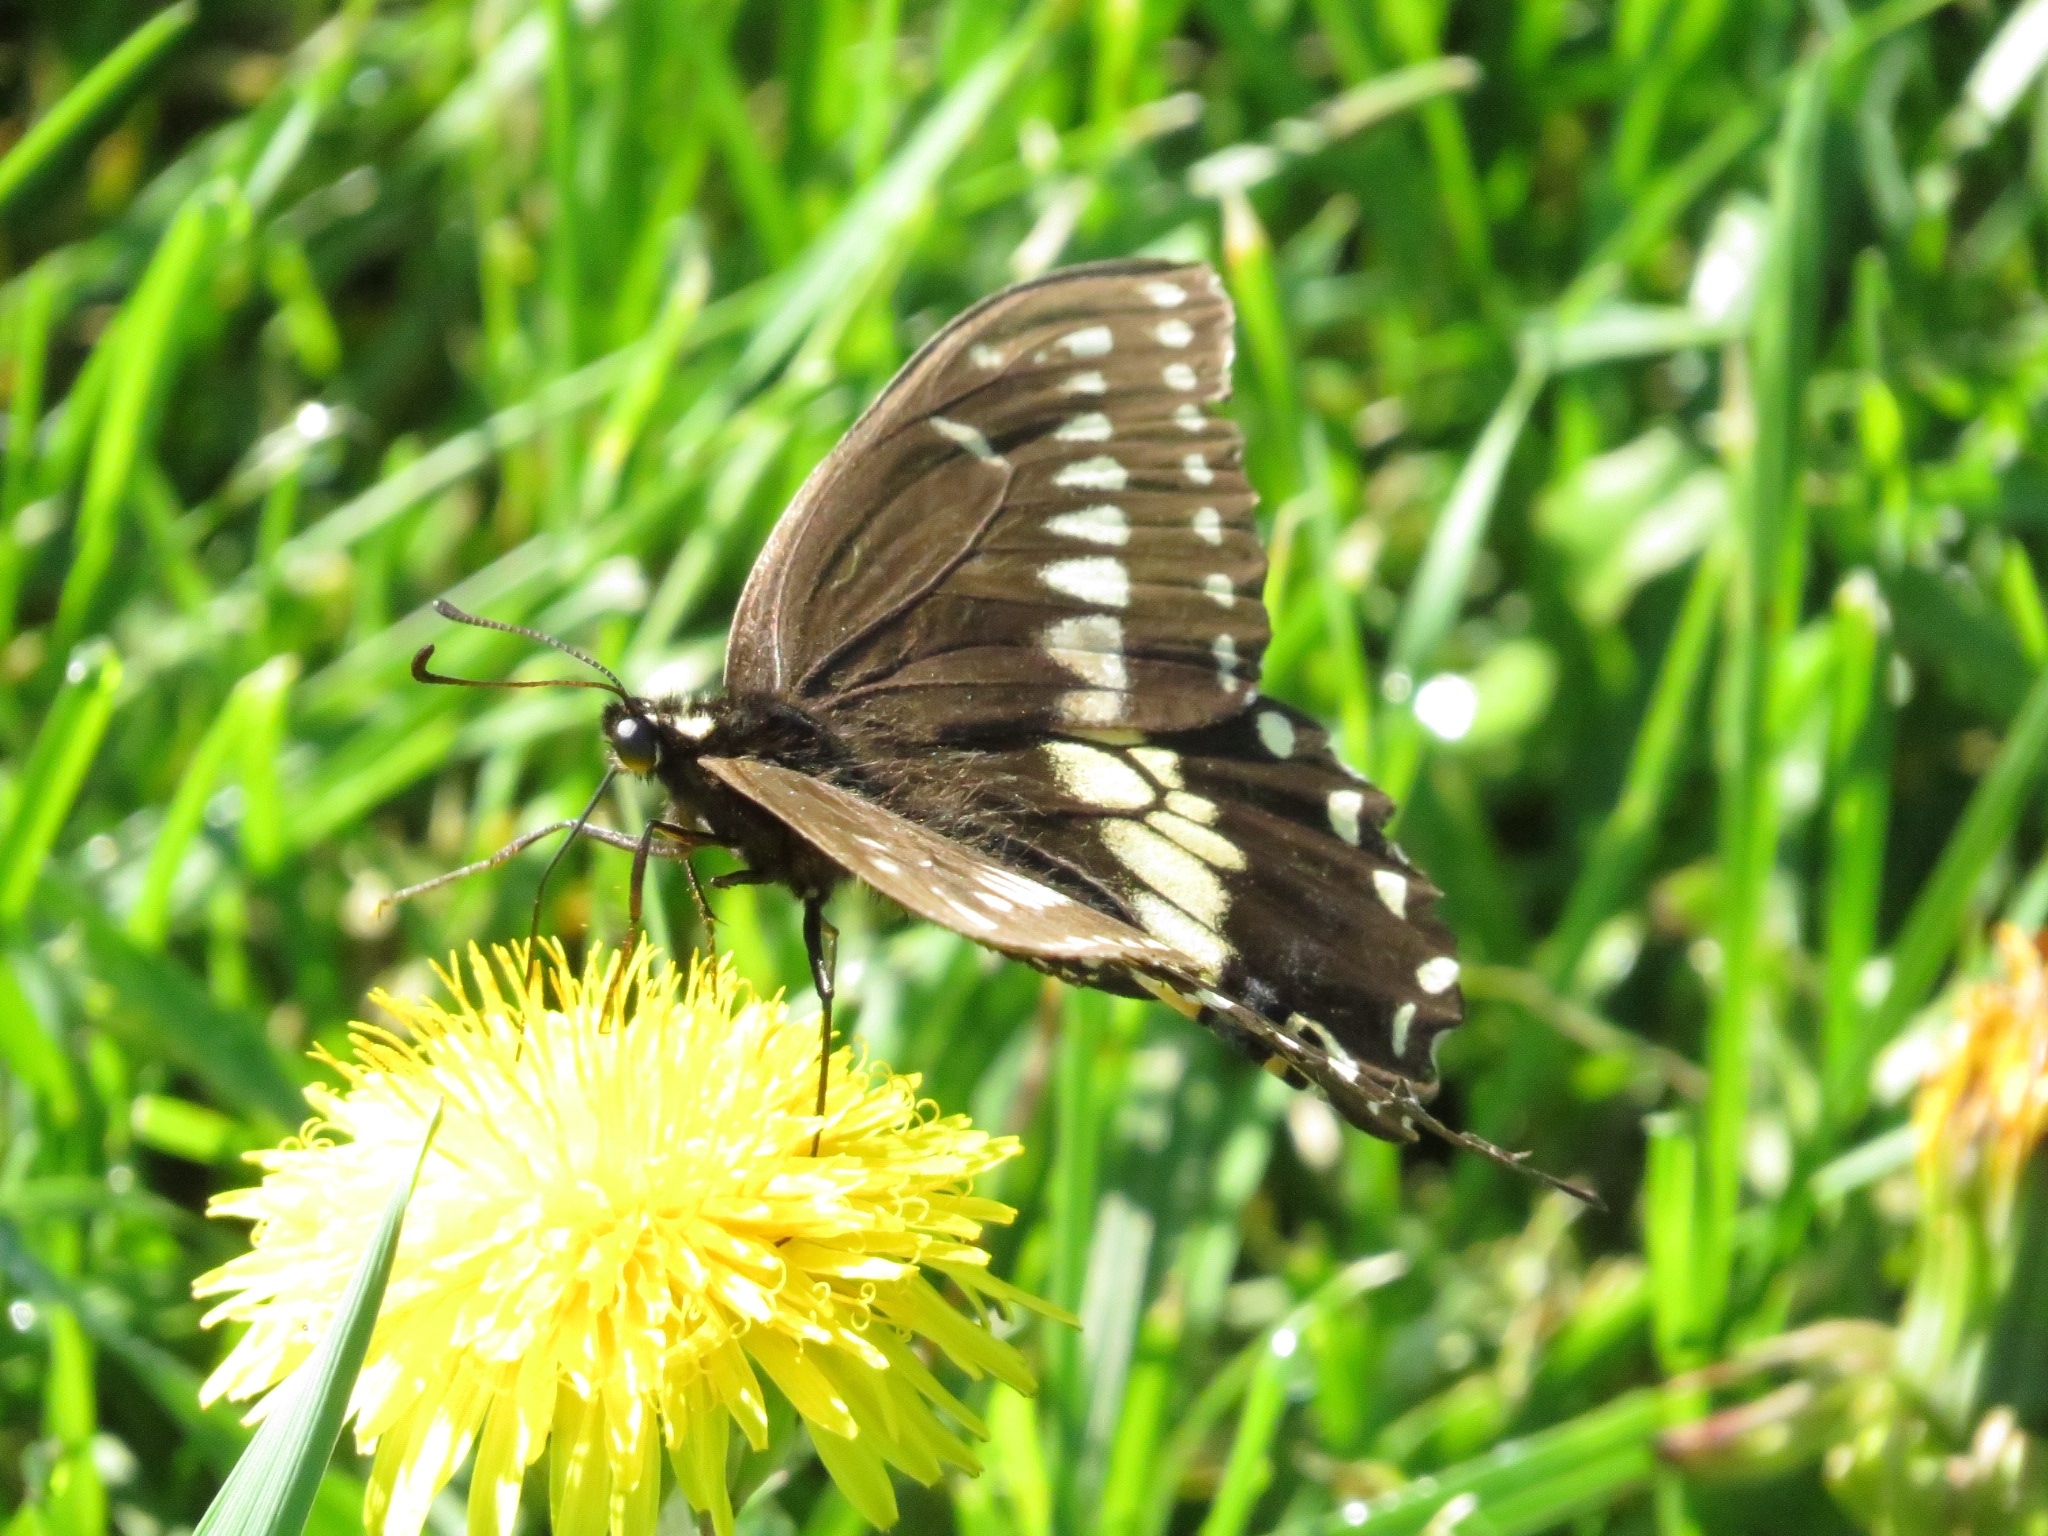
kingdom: Animalia
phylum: Arthropoda
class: Insecta
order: Lepidoptera
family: Papilionidae
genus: Papilio
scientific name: Papilio polyxenes
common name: Black swallowtail
